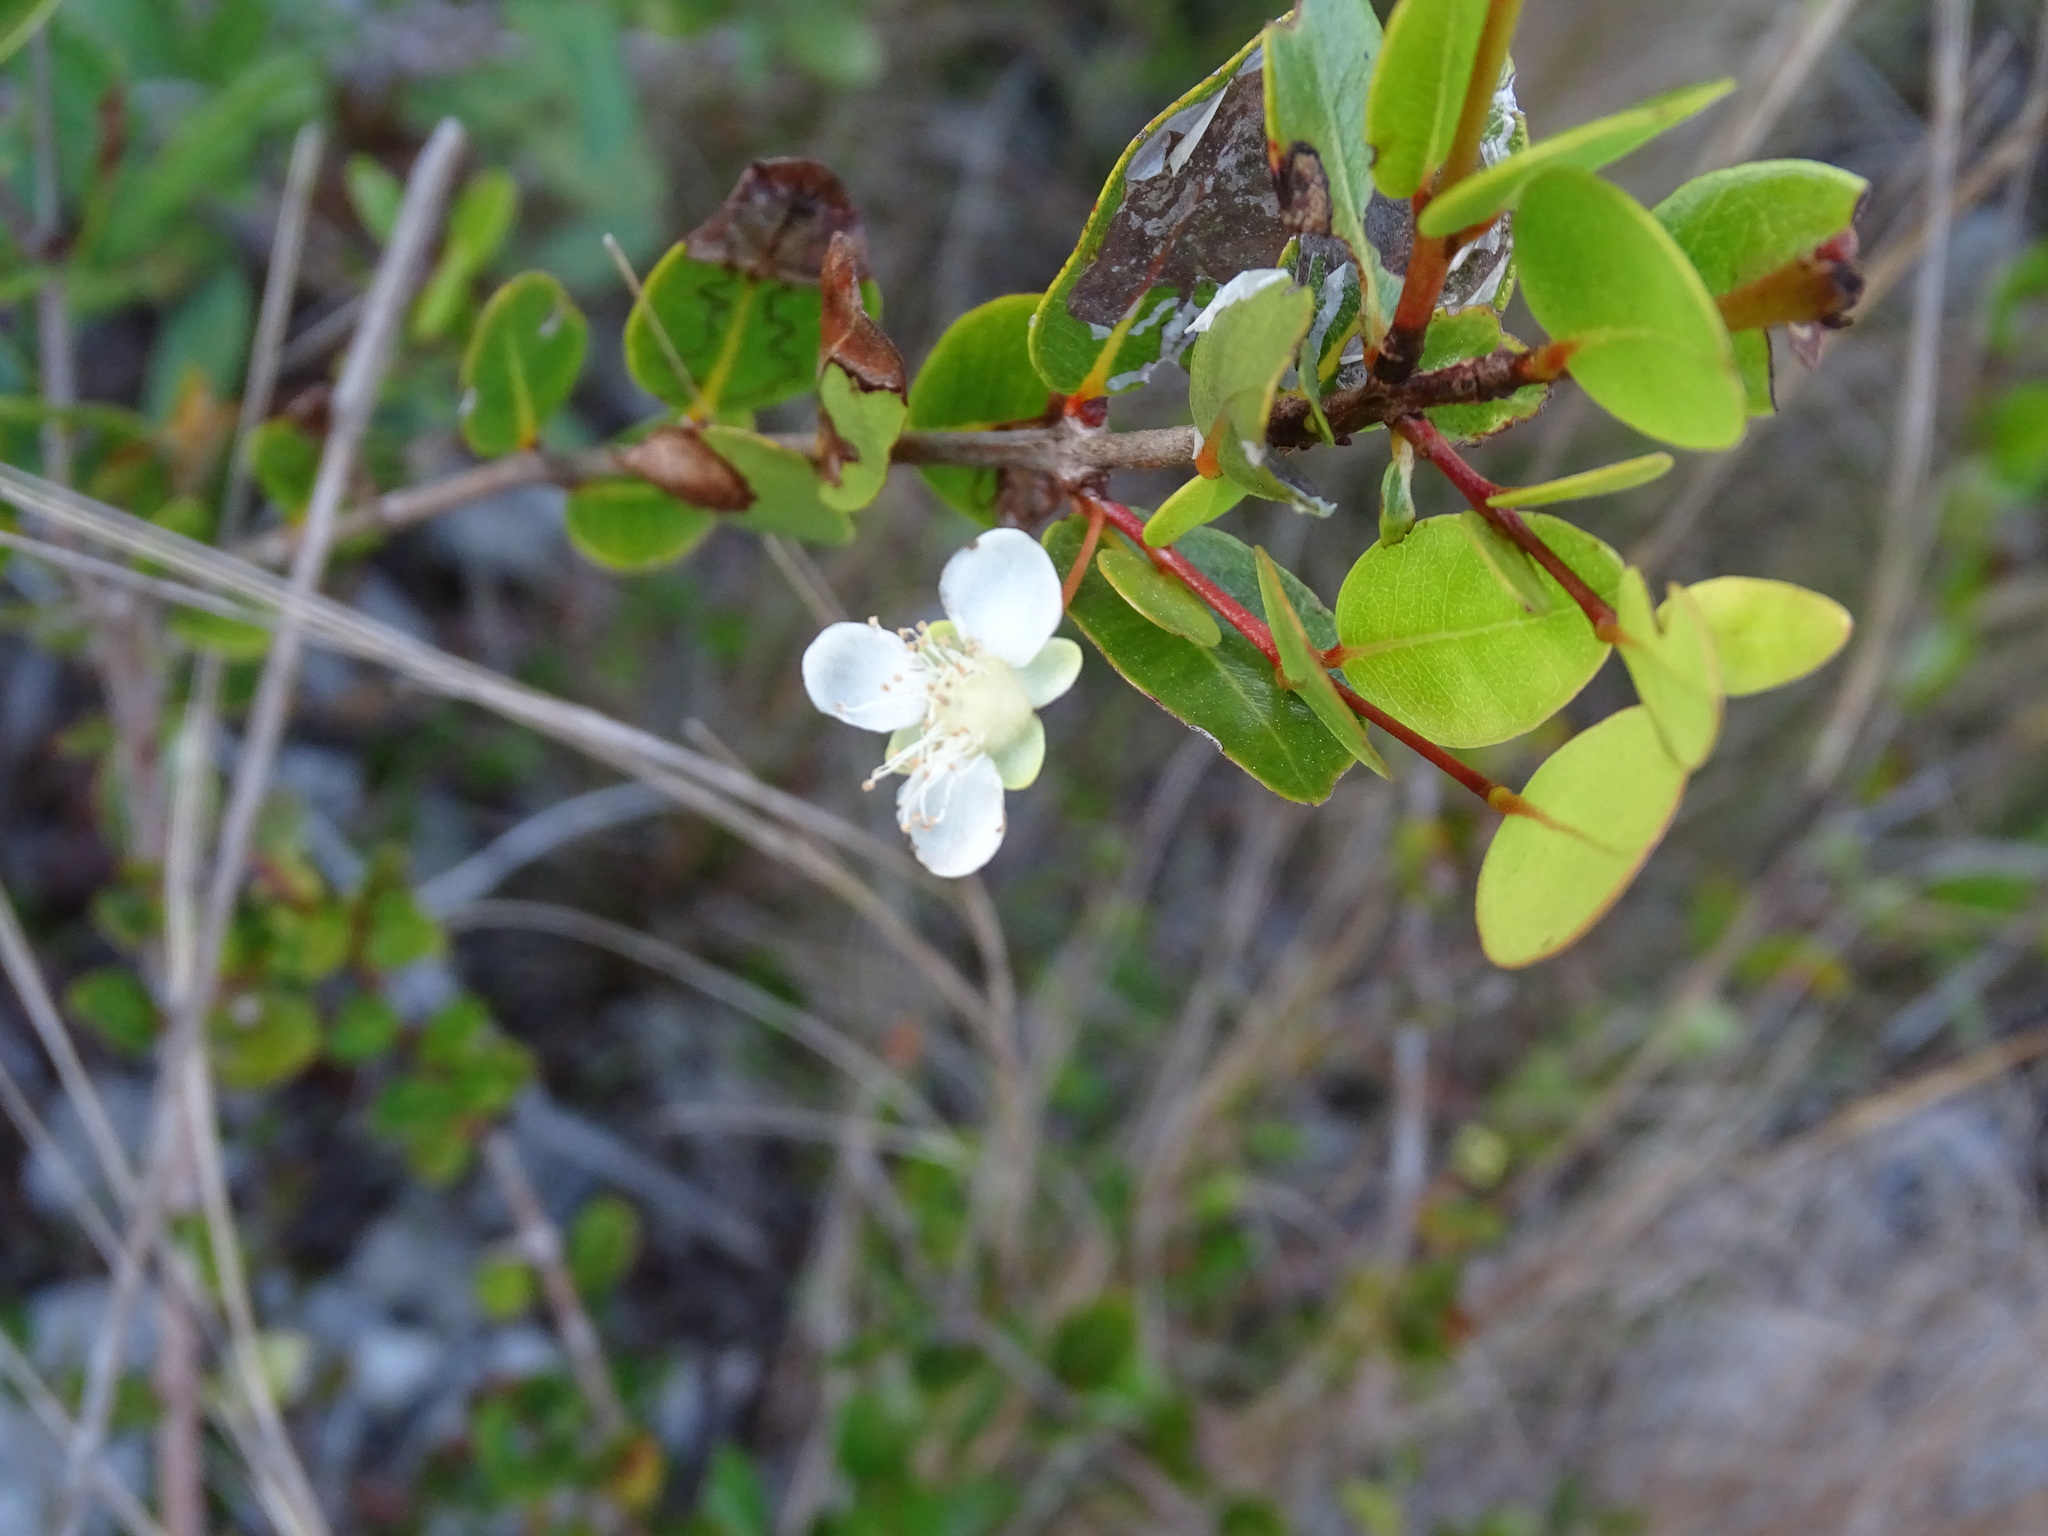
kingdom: Plantae
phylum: Tracheophyta
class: Magnoliopsida
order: Myrtales
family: Myrtaceae
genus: Mosiera
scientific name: Mosiera longipes
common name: Bahama stopper
